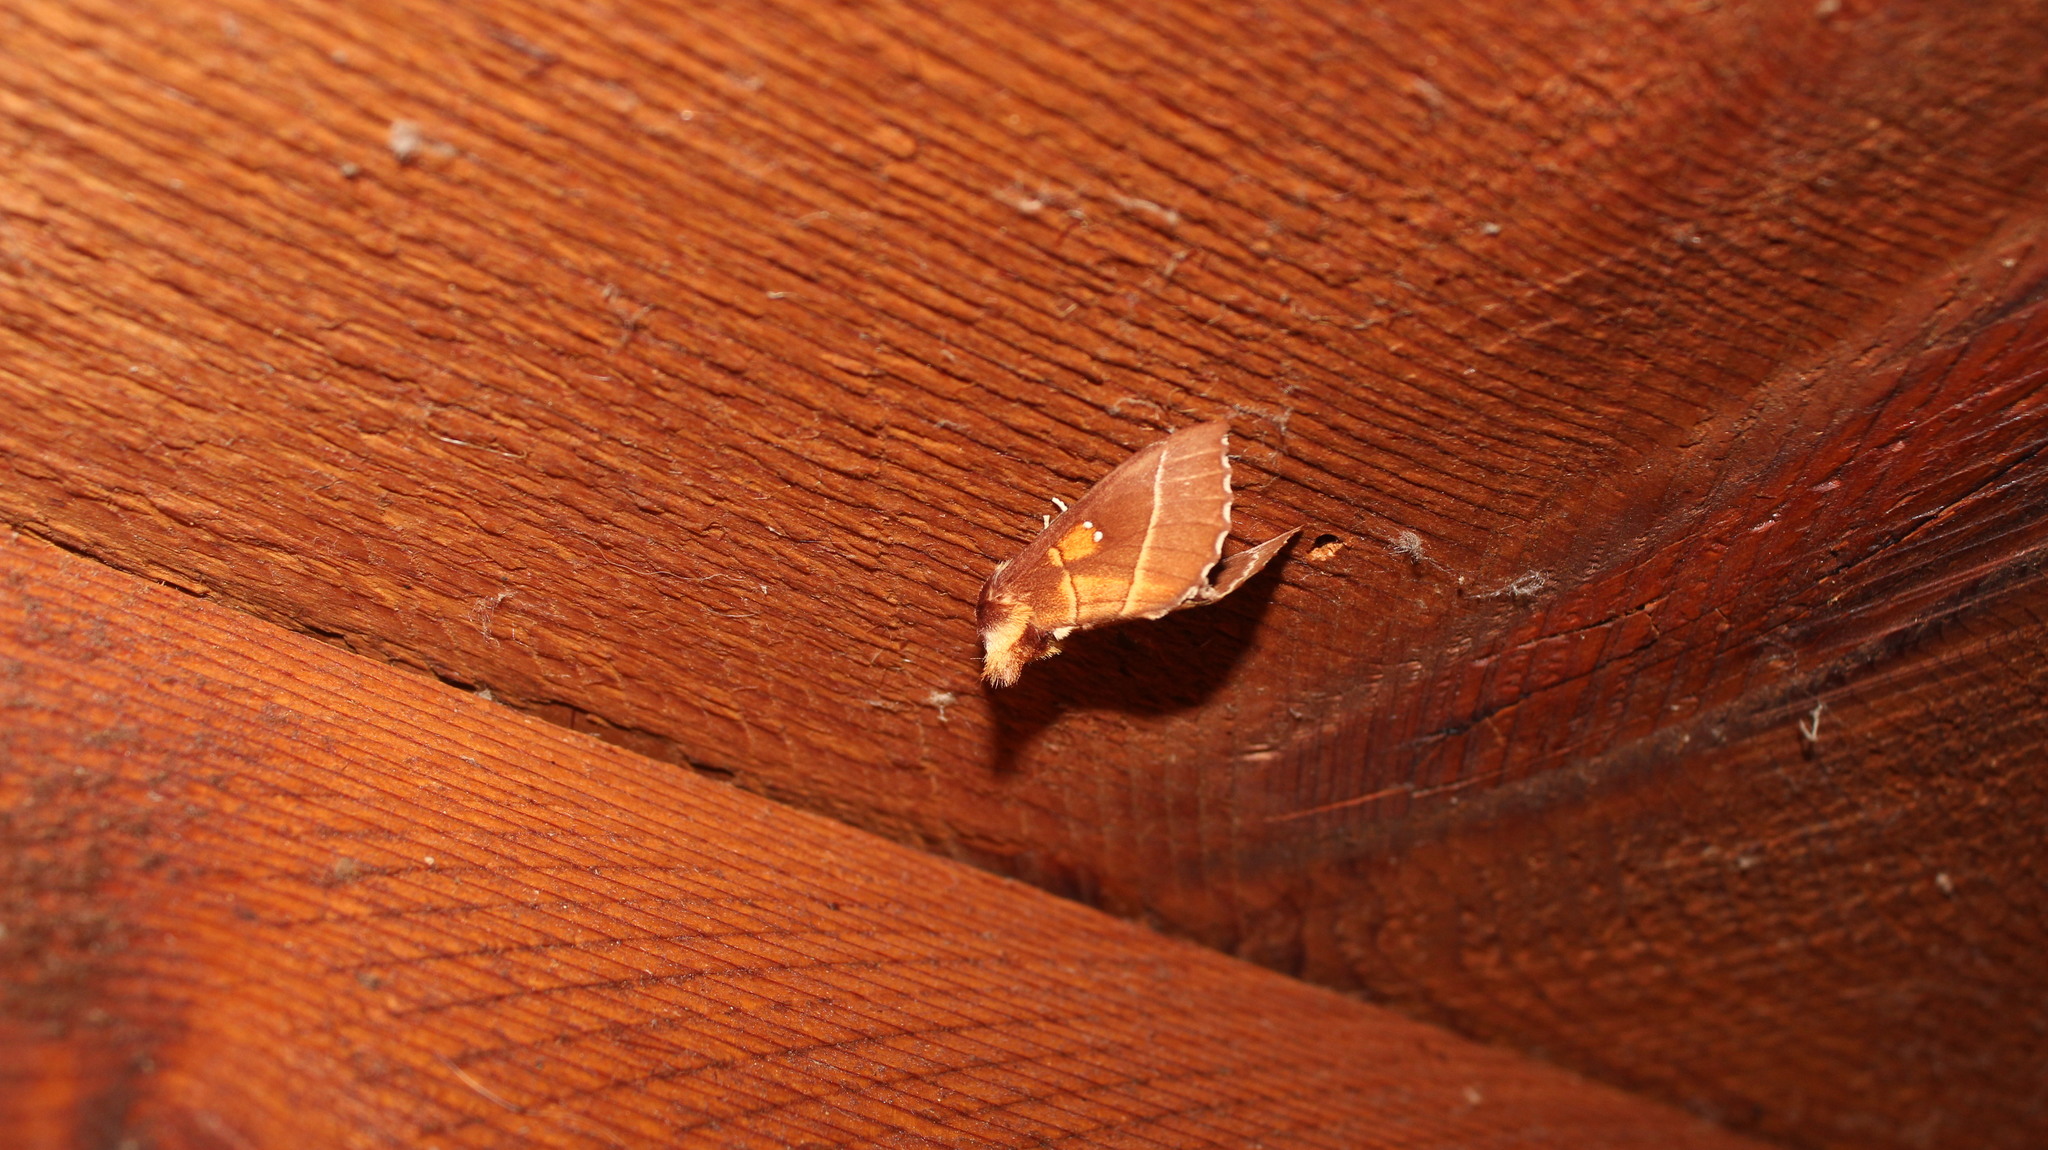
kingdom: Animalia
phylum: Arthropoda
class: Insecta
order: Lepidoptera
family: Notodontidae
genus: Nadata
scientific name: Nadata gibbosa
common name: White-dotted prominent
